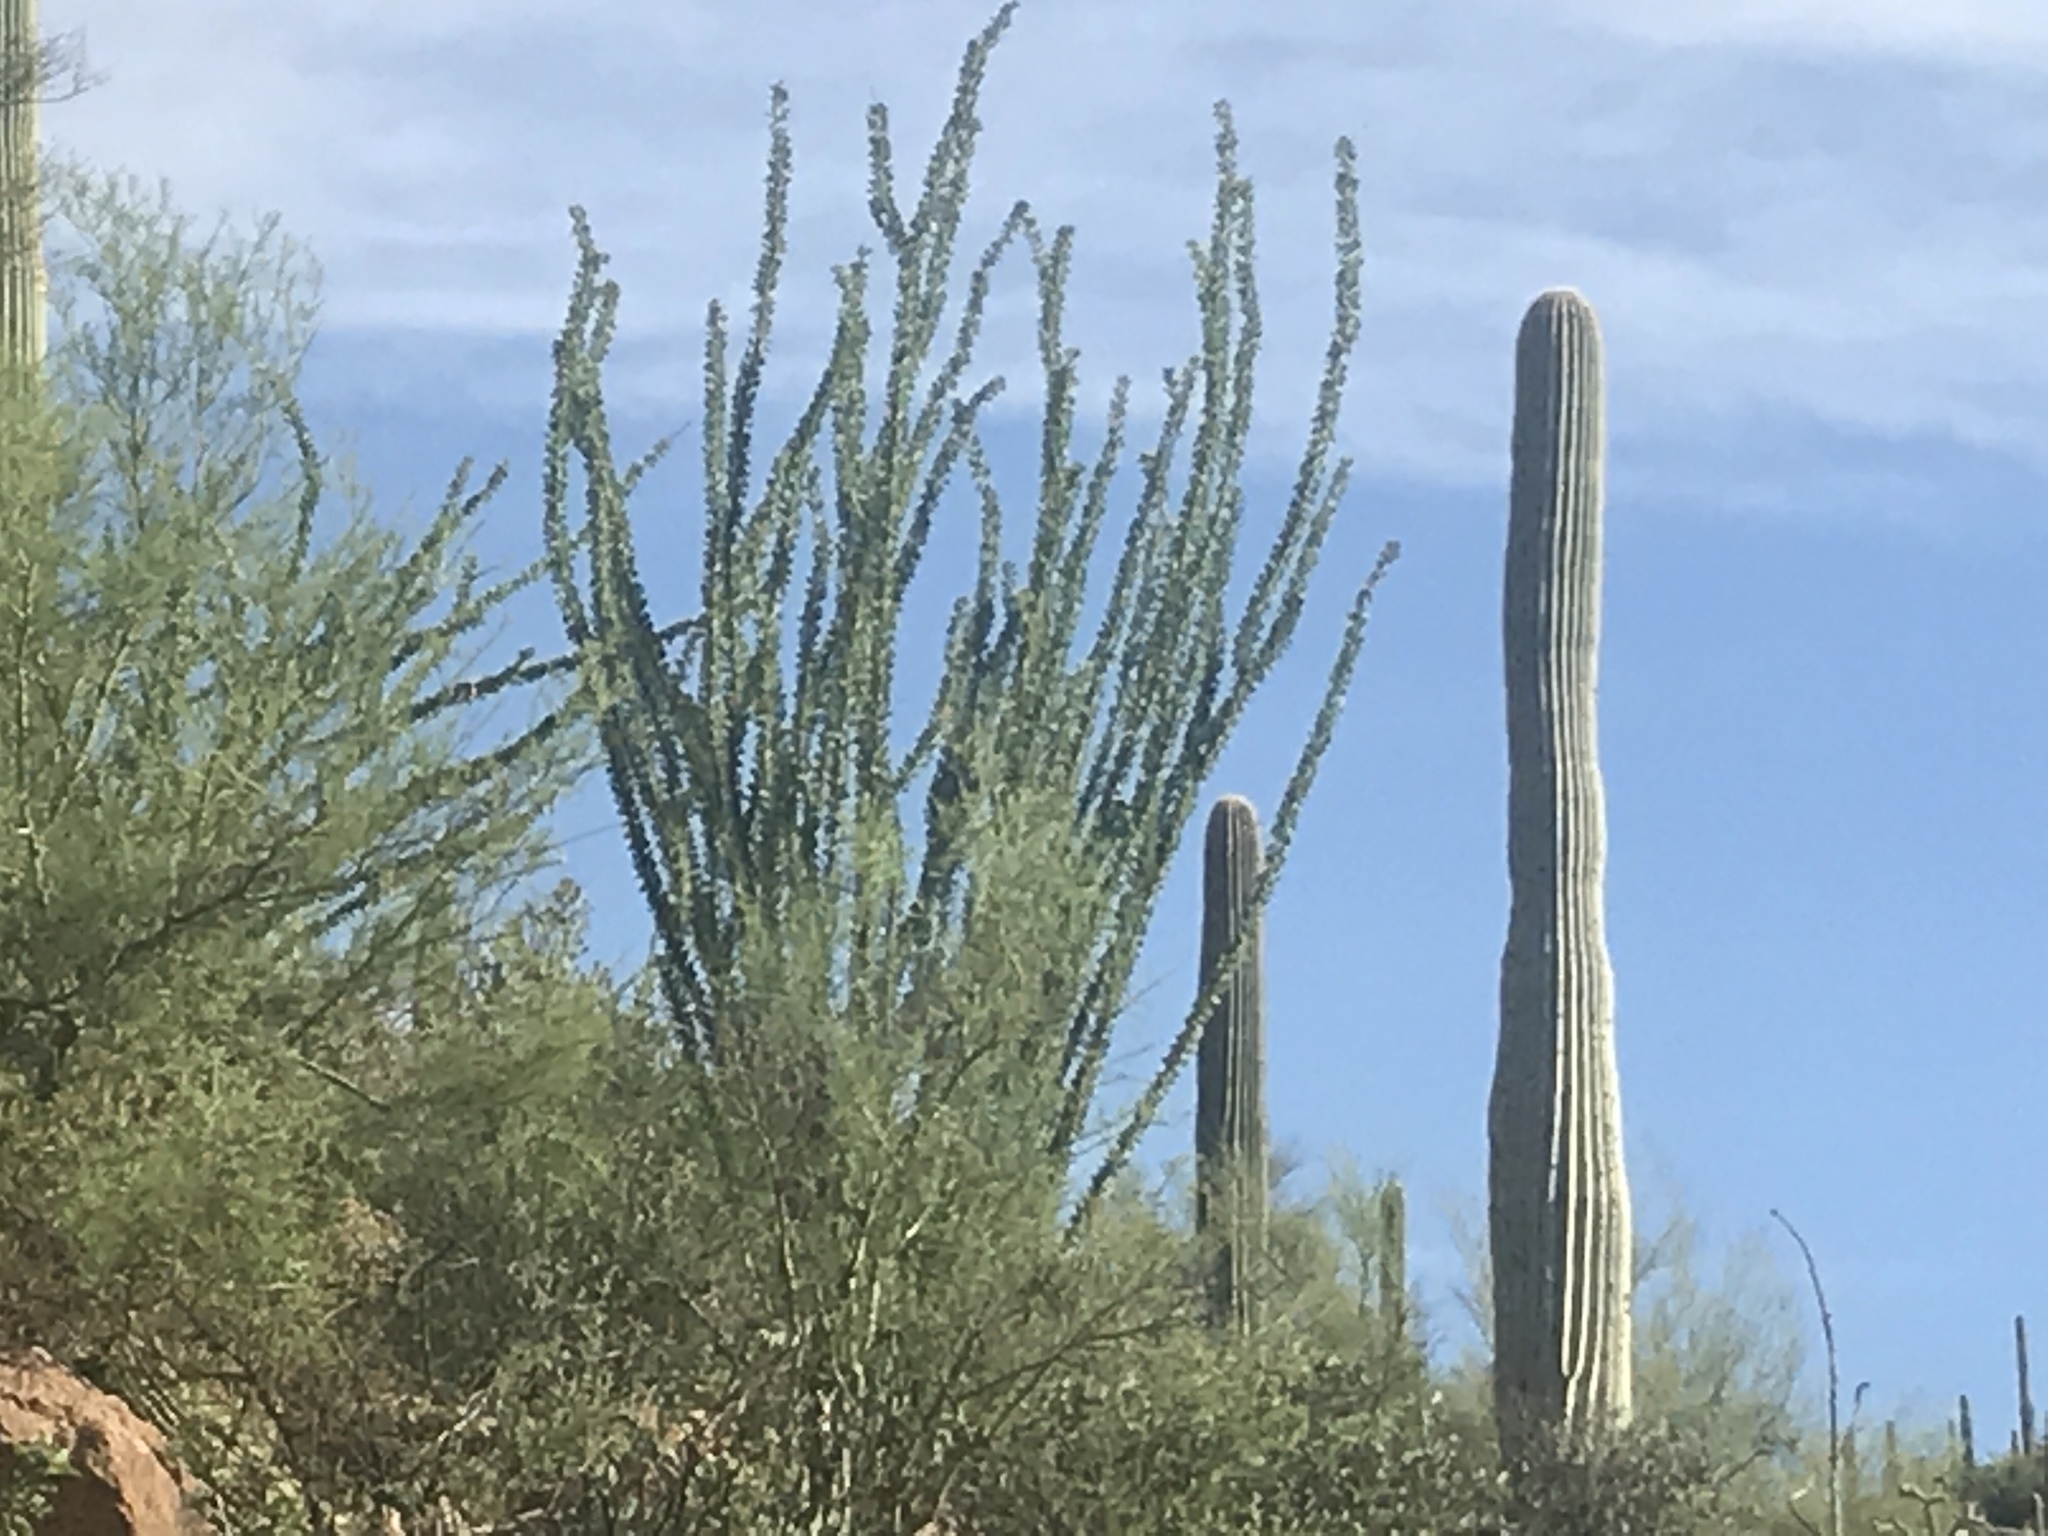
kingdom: Plantae
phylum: Tracheophyta
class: Magnoliopsida
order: Ericales
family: Fouquieriaceae
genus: Fouquieria
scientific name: Fouquieria splendens
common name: Vine-cactus
